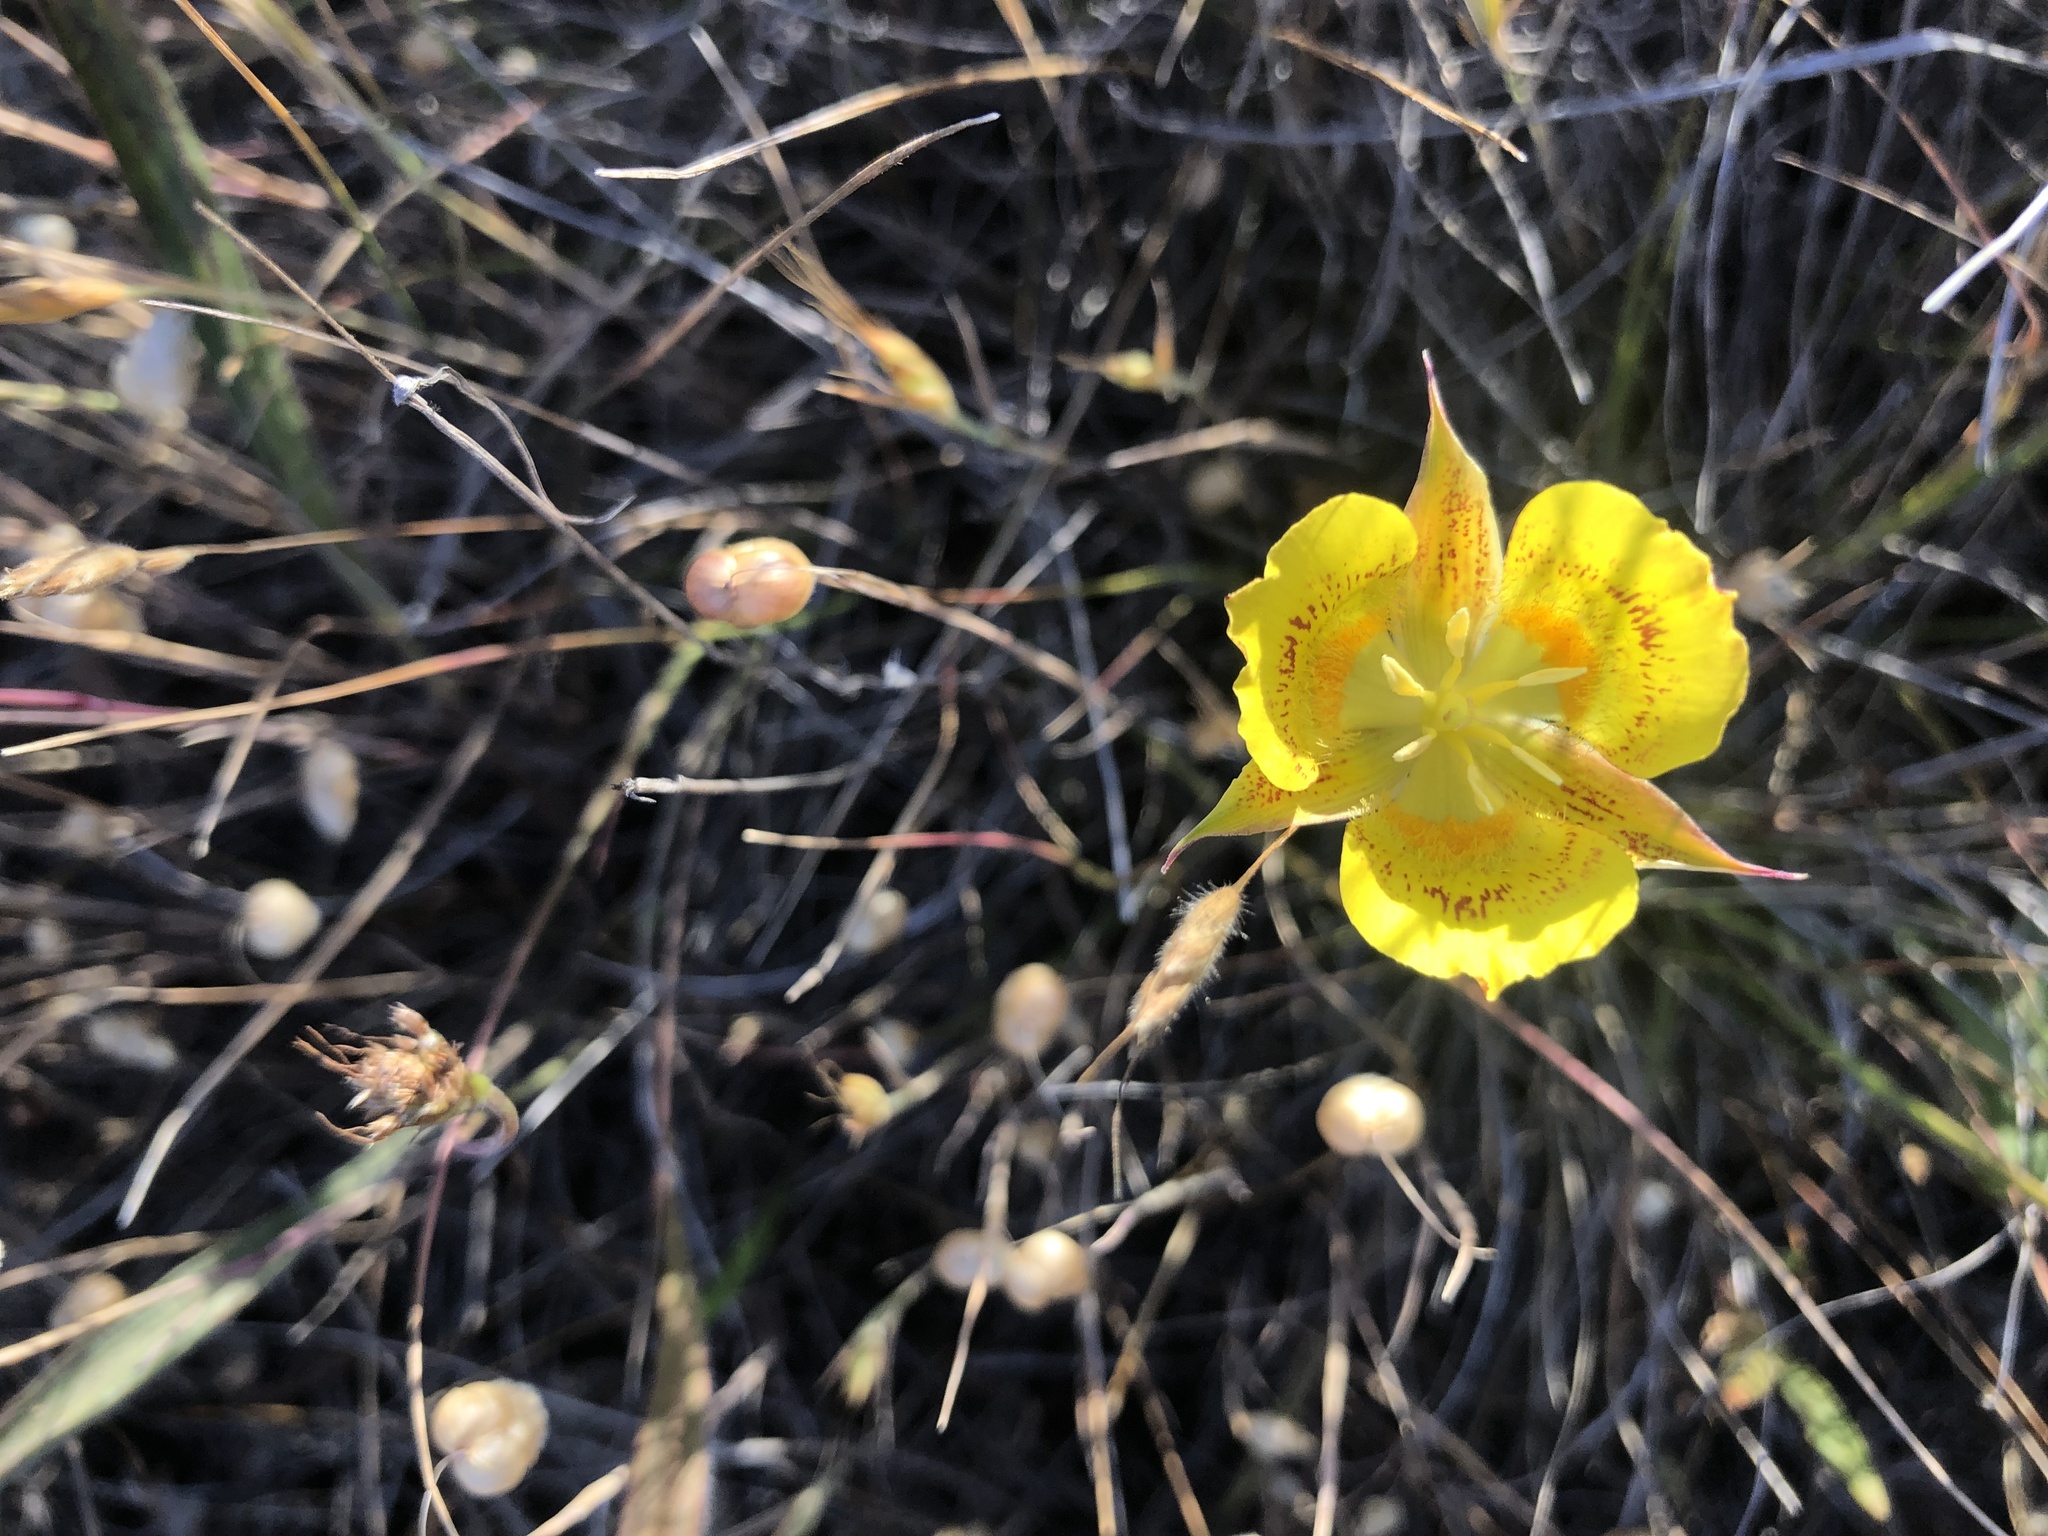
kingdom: Plantae
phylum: Tracheophyta
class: Liliopsida
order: Liliales
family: Liliaceae
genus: Calochortus
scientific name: Calochortus luteus
